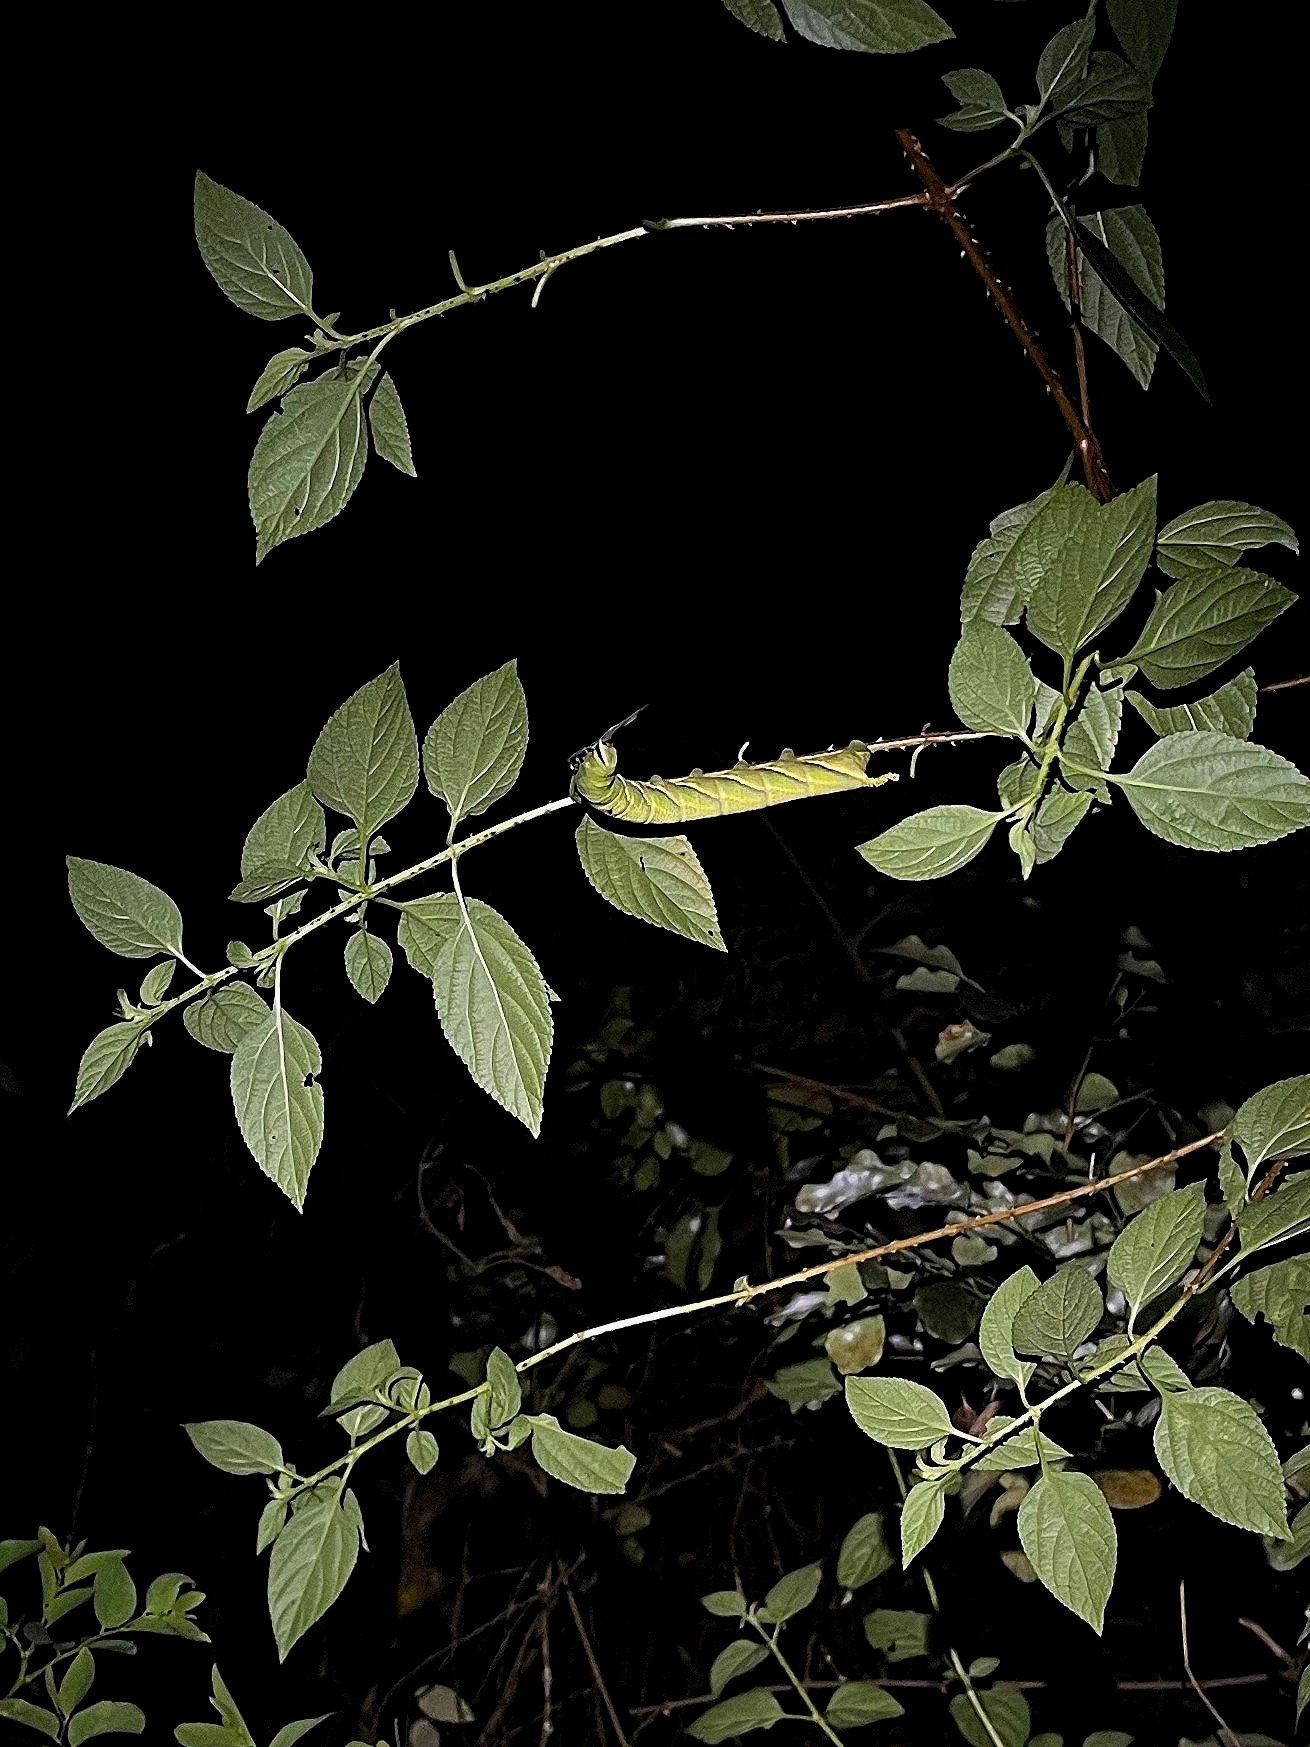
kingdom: Animalia
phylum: Arthropoda
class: Insecta
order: Lepidoptera
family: Sphingidae
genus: Acherontia
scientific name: Acherontia styx
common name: Death's-head hawk moth
